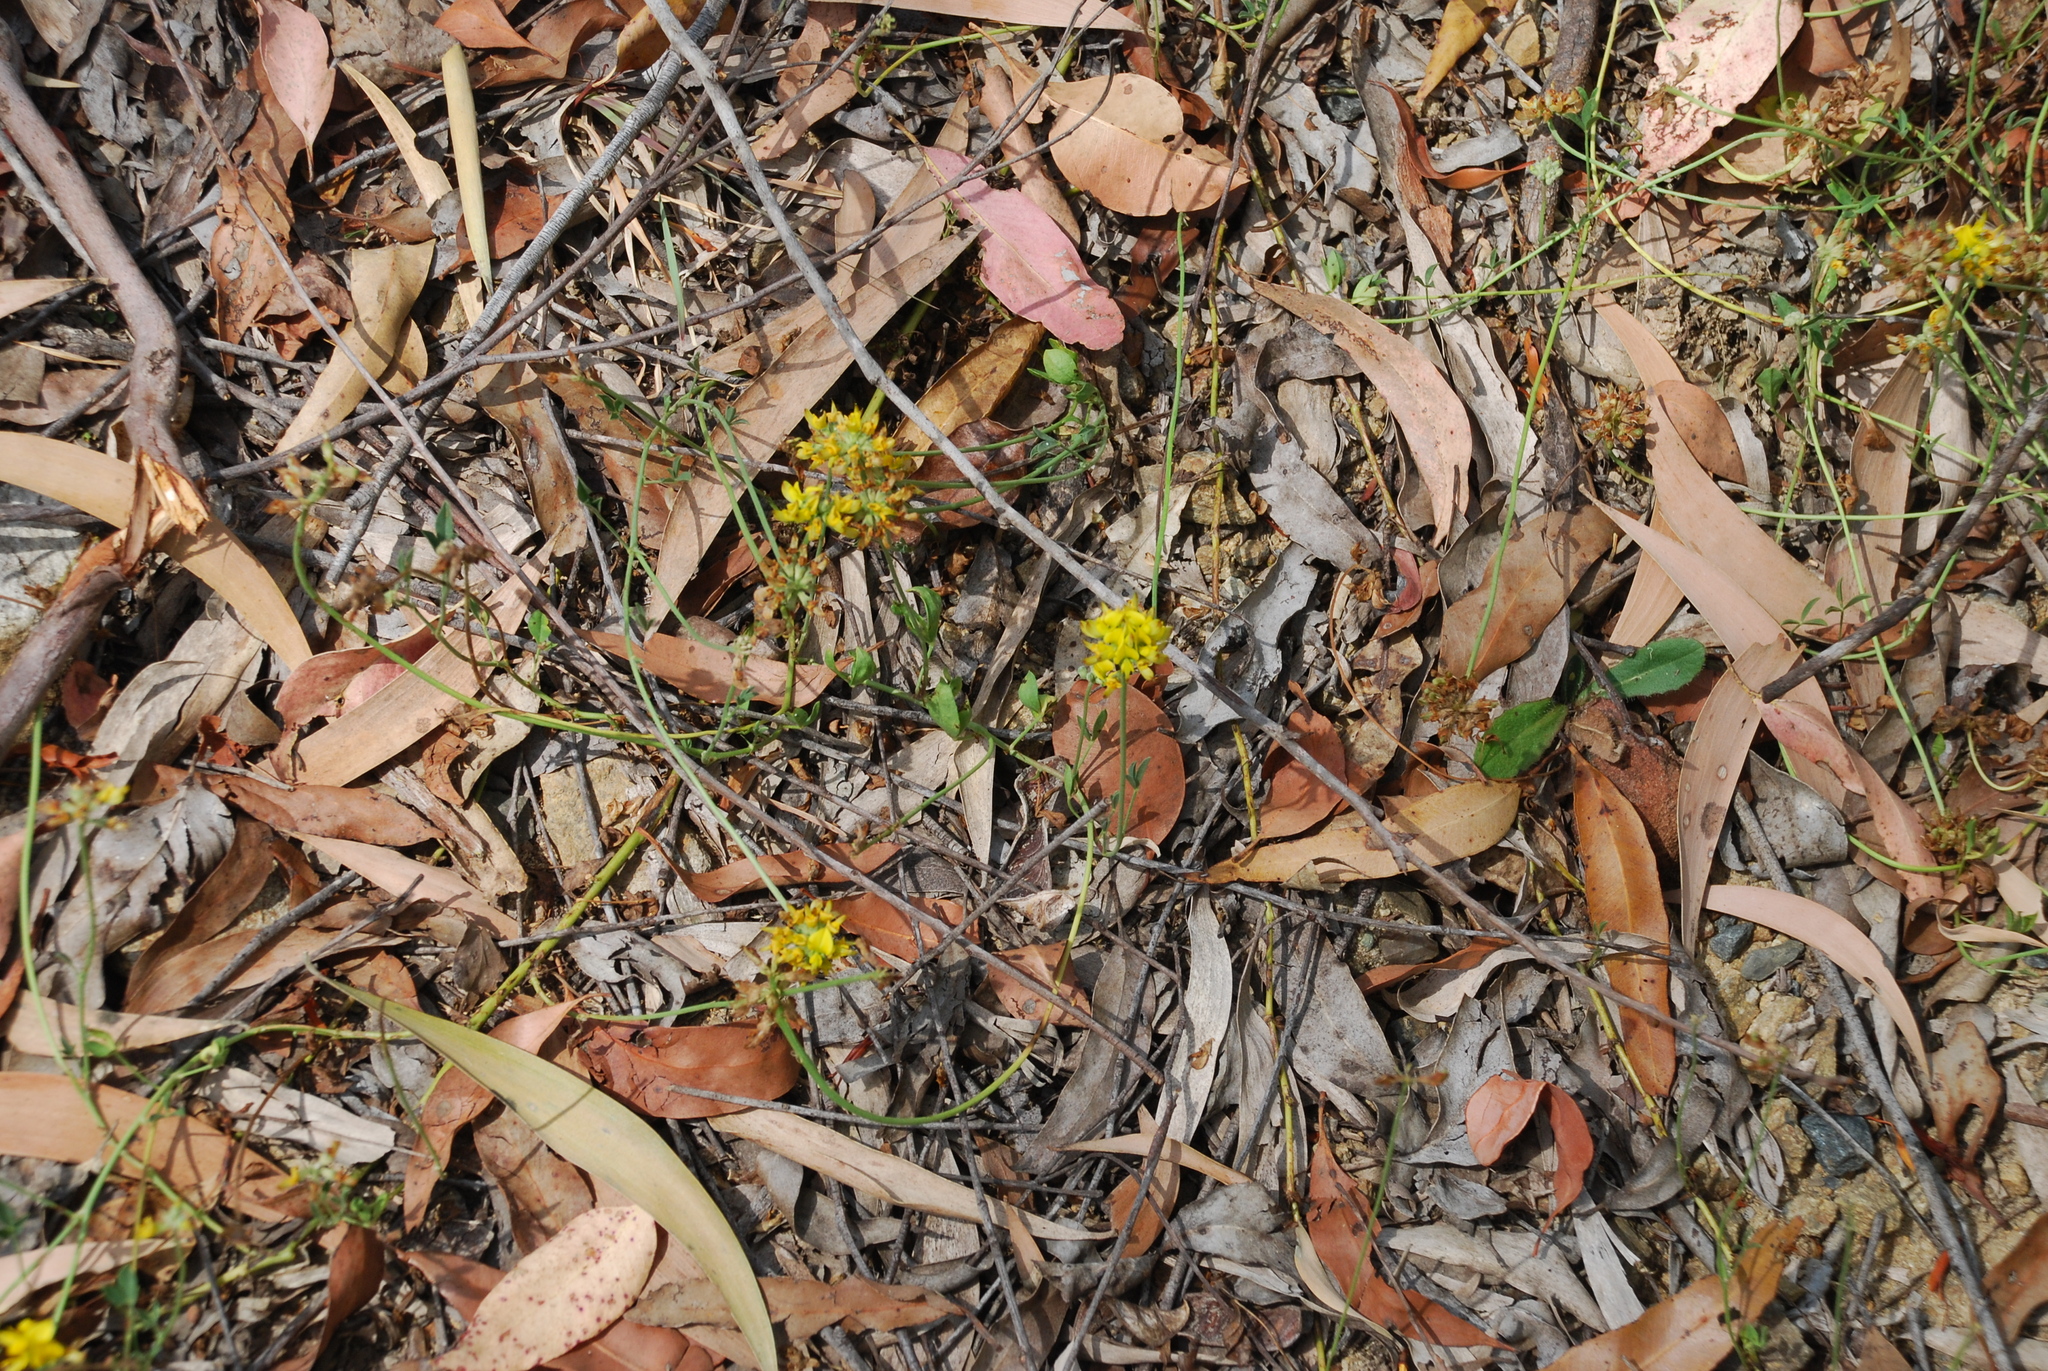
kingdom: Plantae
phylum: Tracheophyta
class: Magnoliopsida
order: Fabales
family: Fabaceae
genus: Listia
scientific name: Listia bainesii
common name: Lotononis
